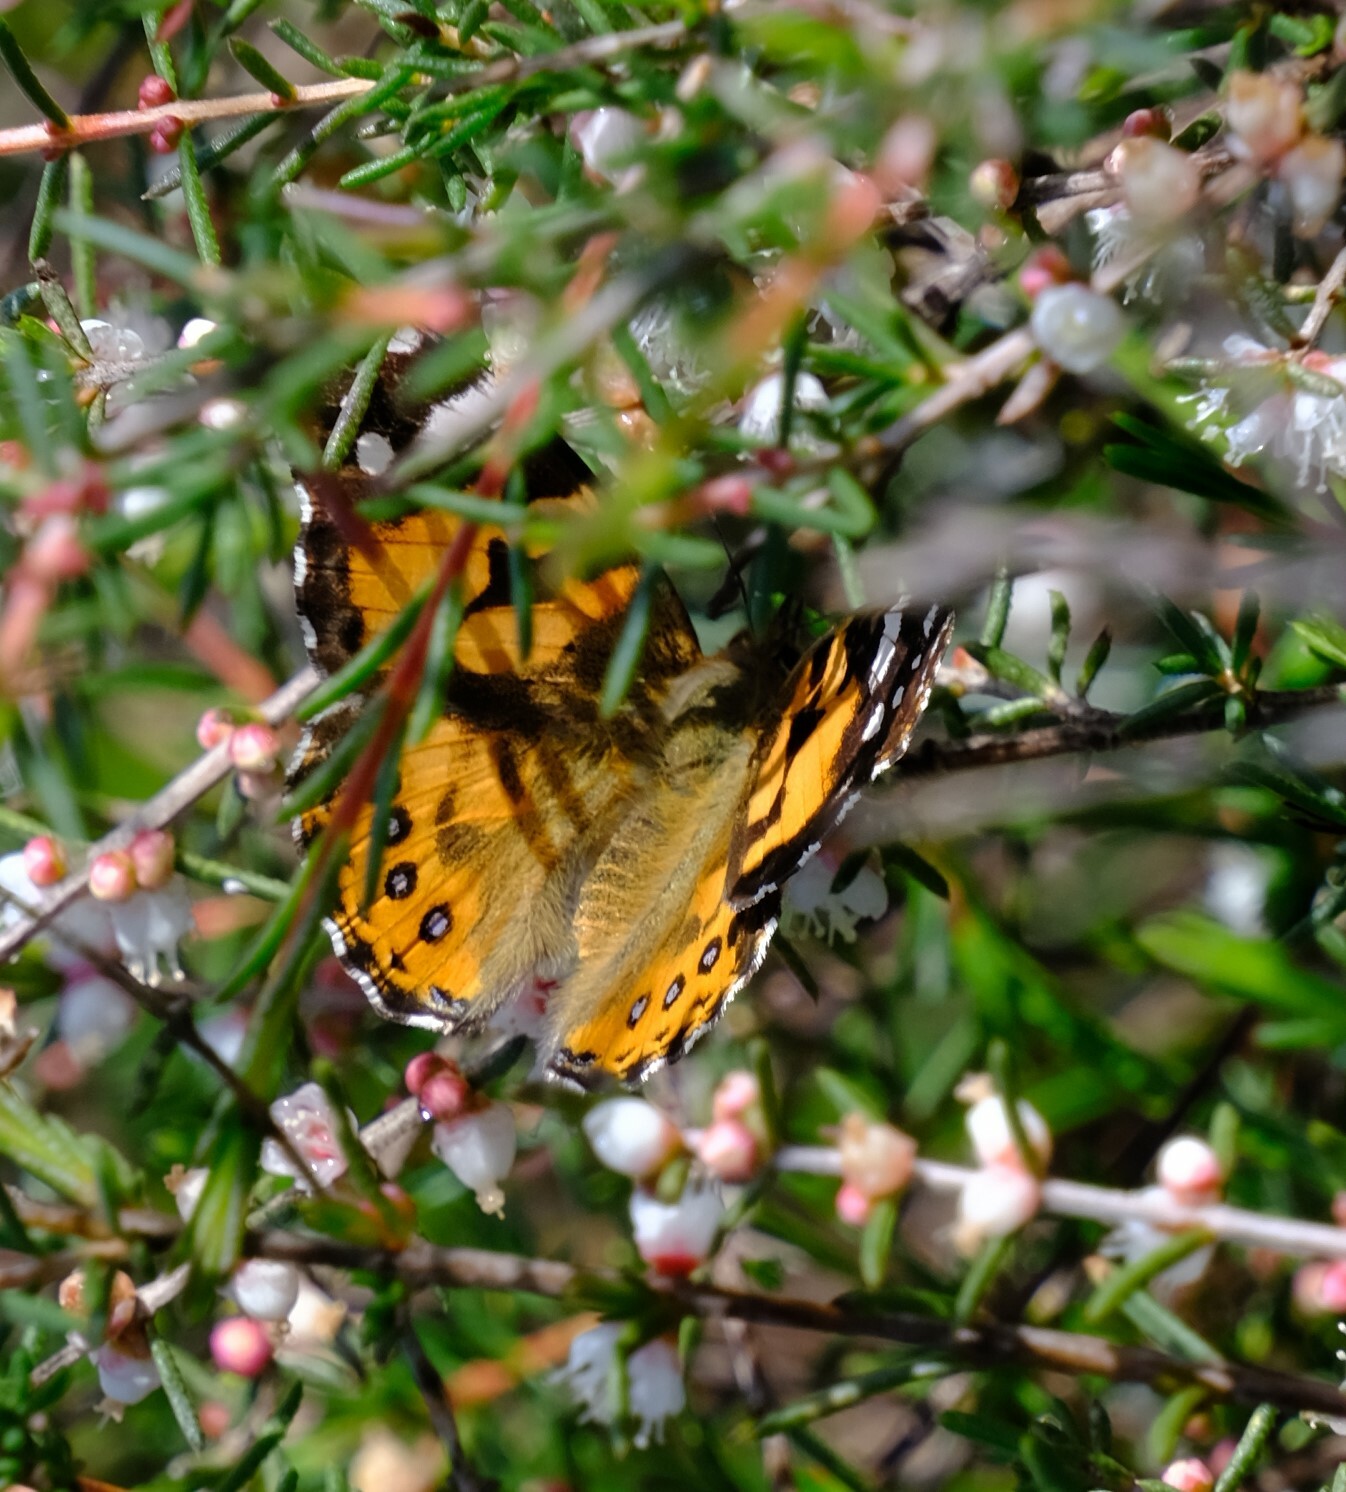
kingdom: Animalia
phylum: Arthropoda
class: Insecta
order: Lepidoptera
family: Nymphalidae
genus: Vanessa
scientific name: Vanessa kershawi
